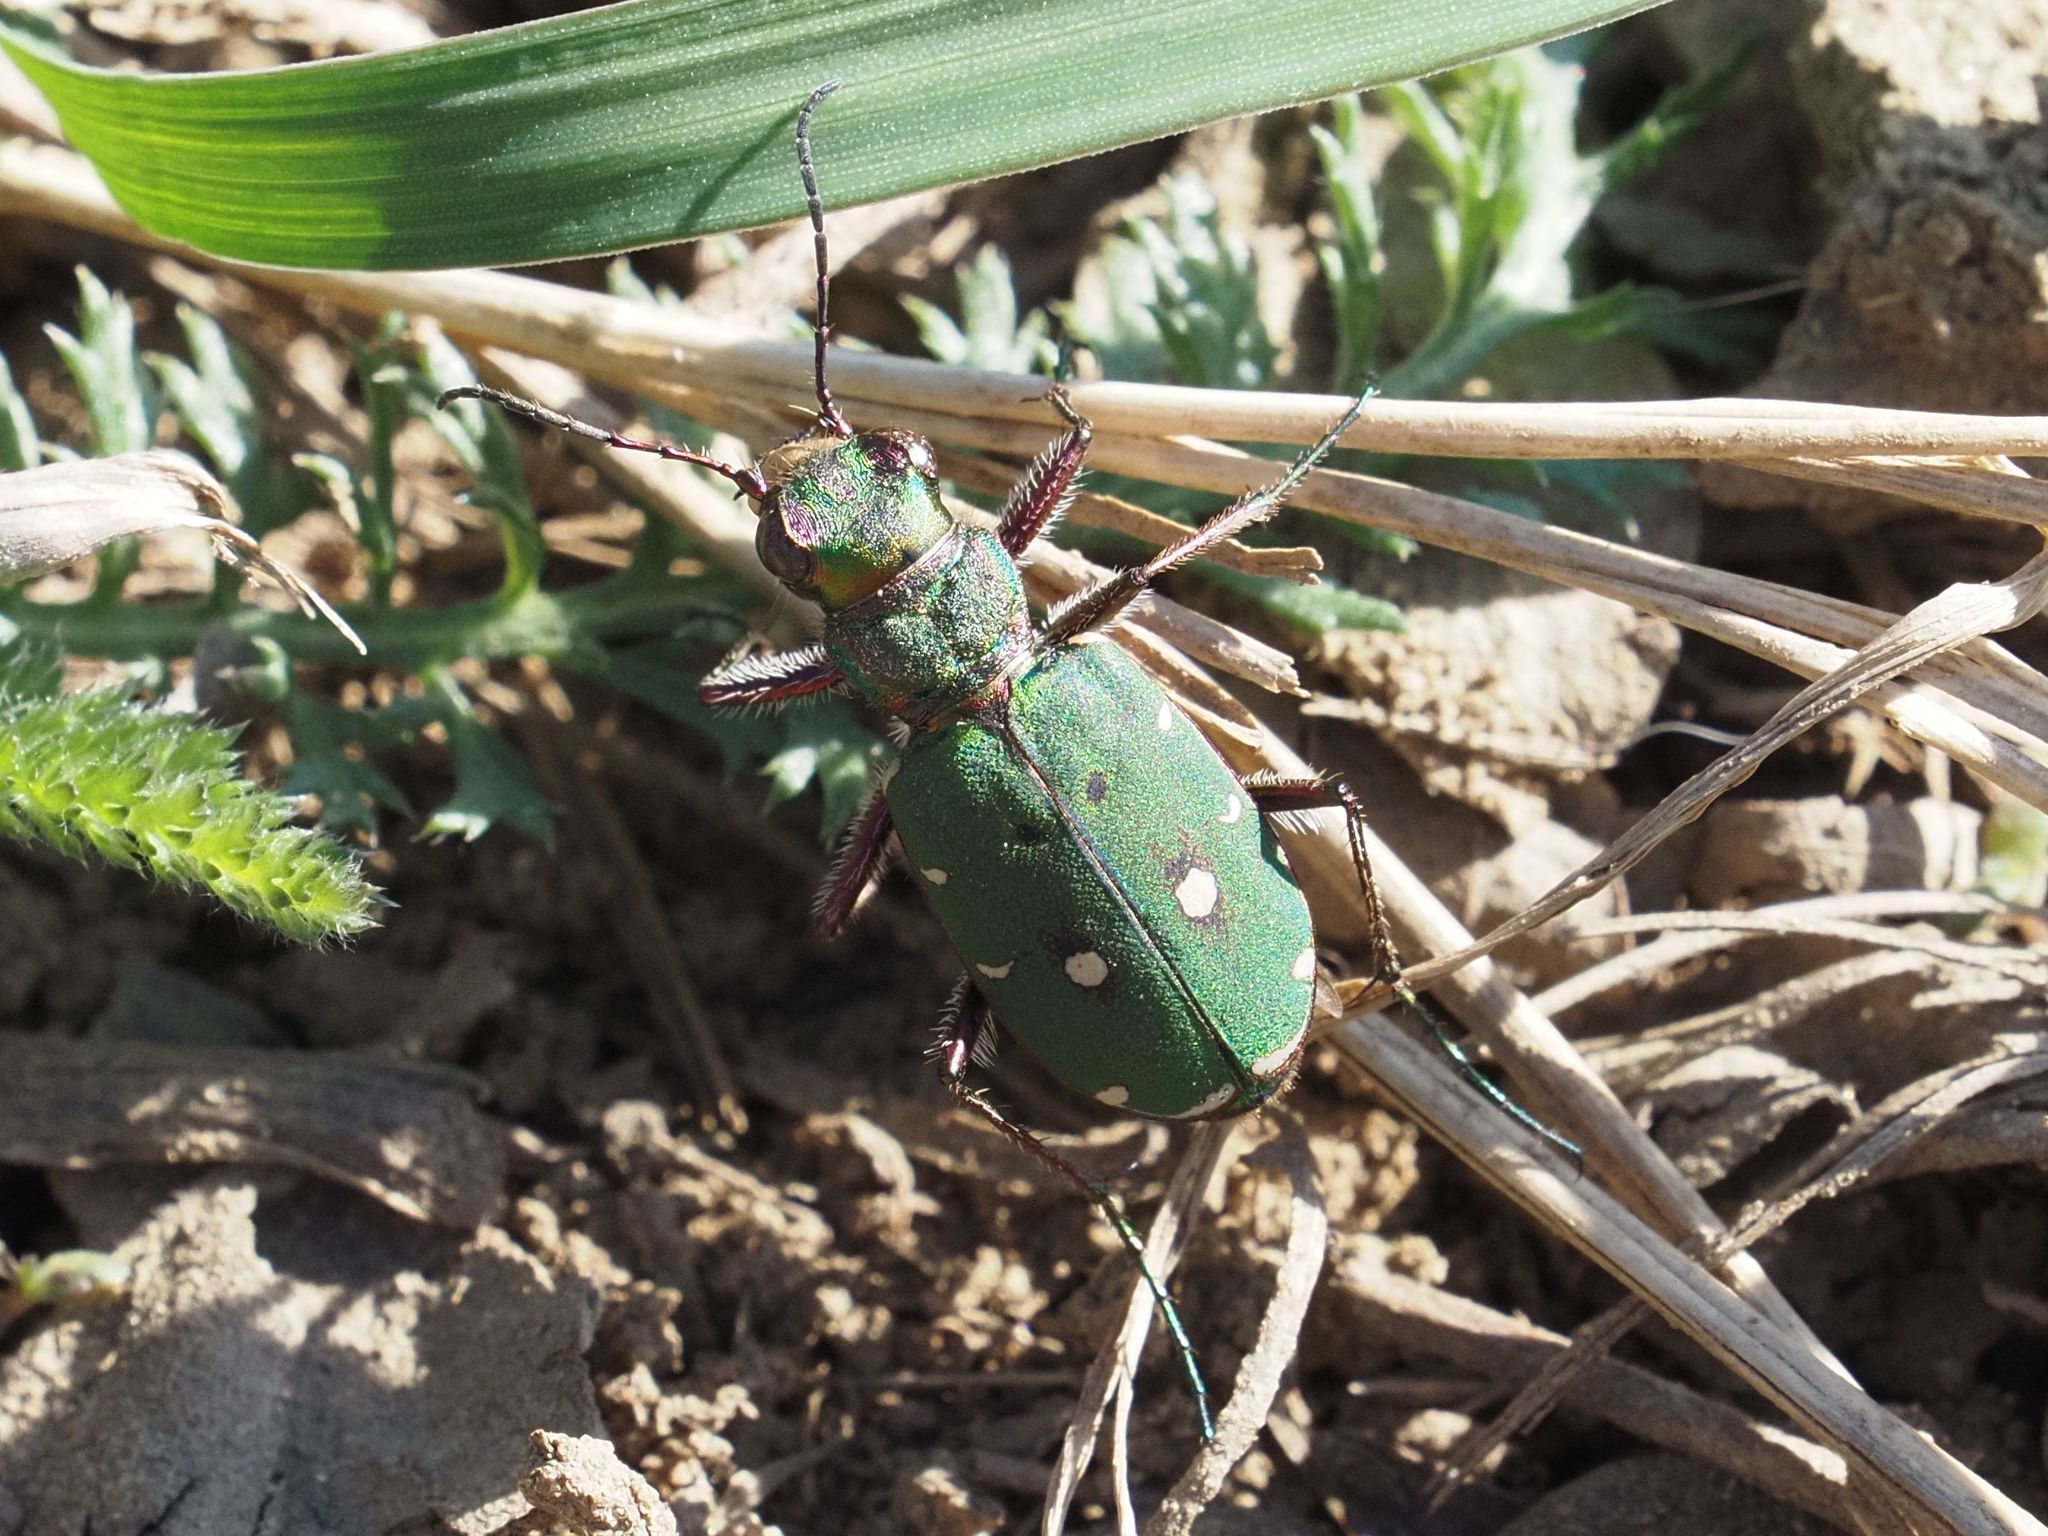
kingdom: Animalia
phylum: Arthropoda
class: Insecta
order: Coleoptera
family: Carabidae
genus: Cicindela
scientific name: Cicindela campestris
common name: Common tiger beetle
